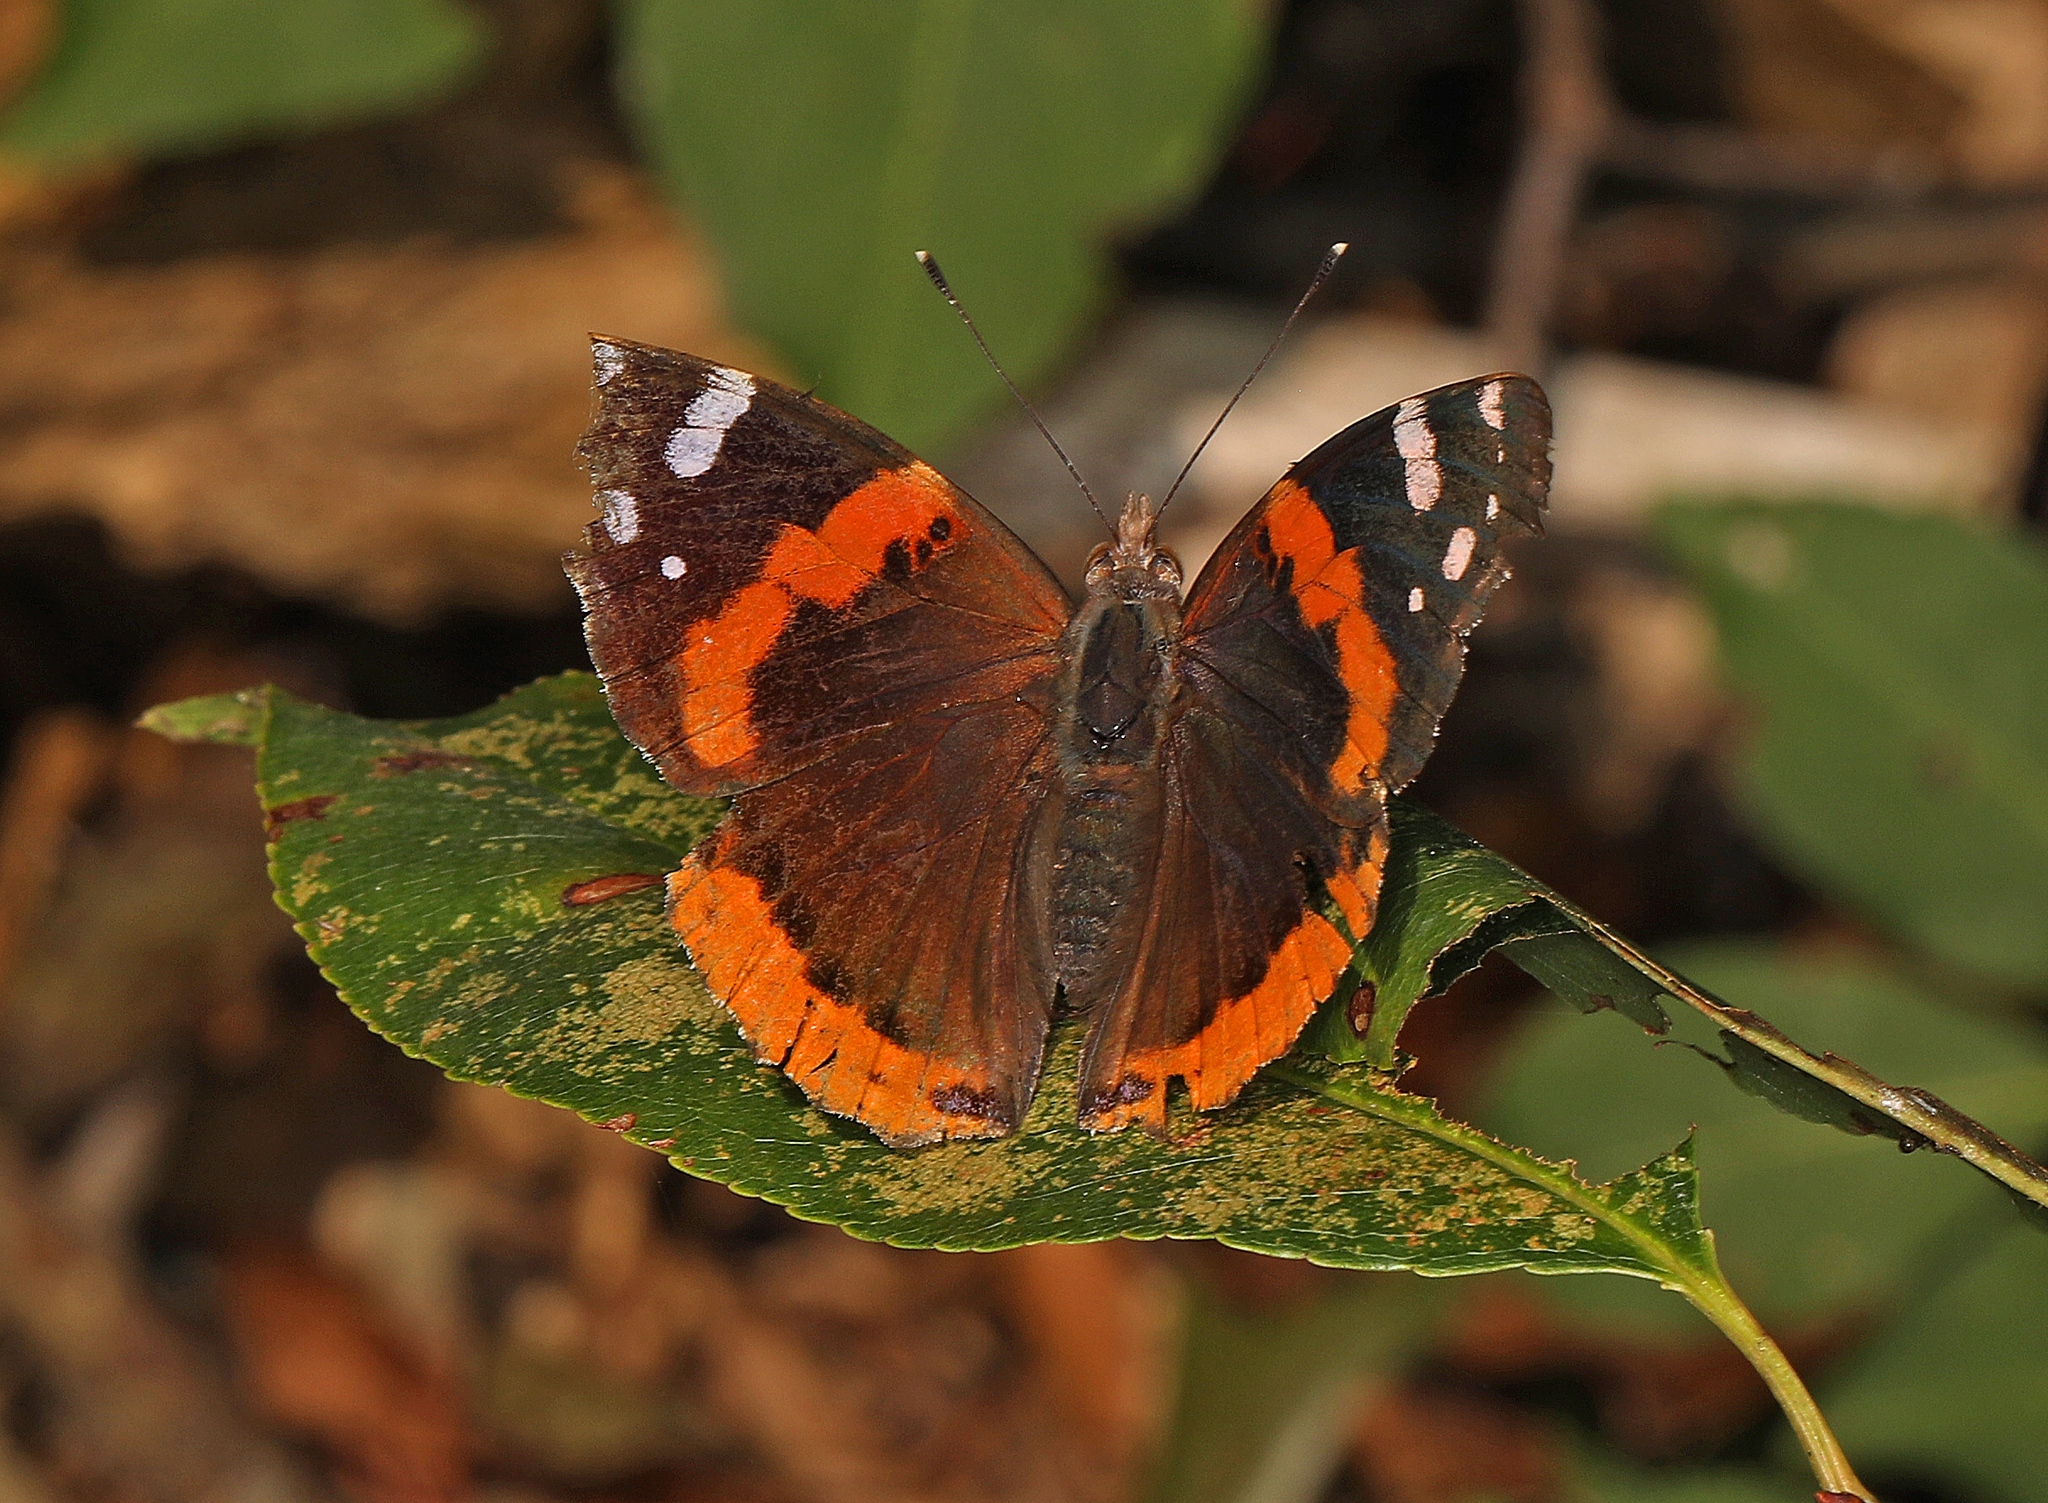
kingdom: Animalia
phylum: Arthropoda
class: Insecta
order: Lepidoptera
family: Nymphalidae
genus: Vanessa
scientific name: Vanessa atalanta
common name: Red admiral
